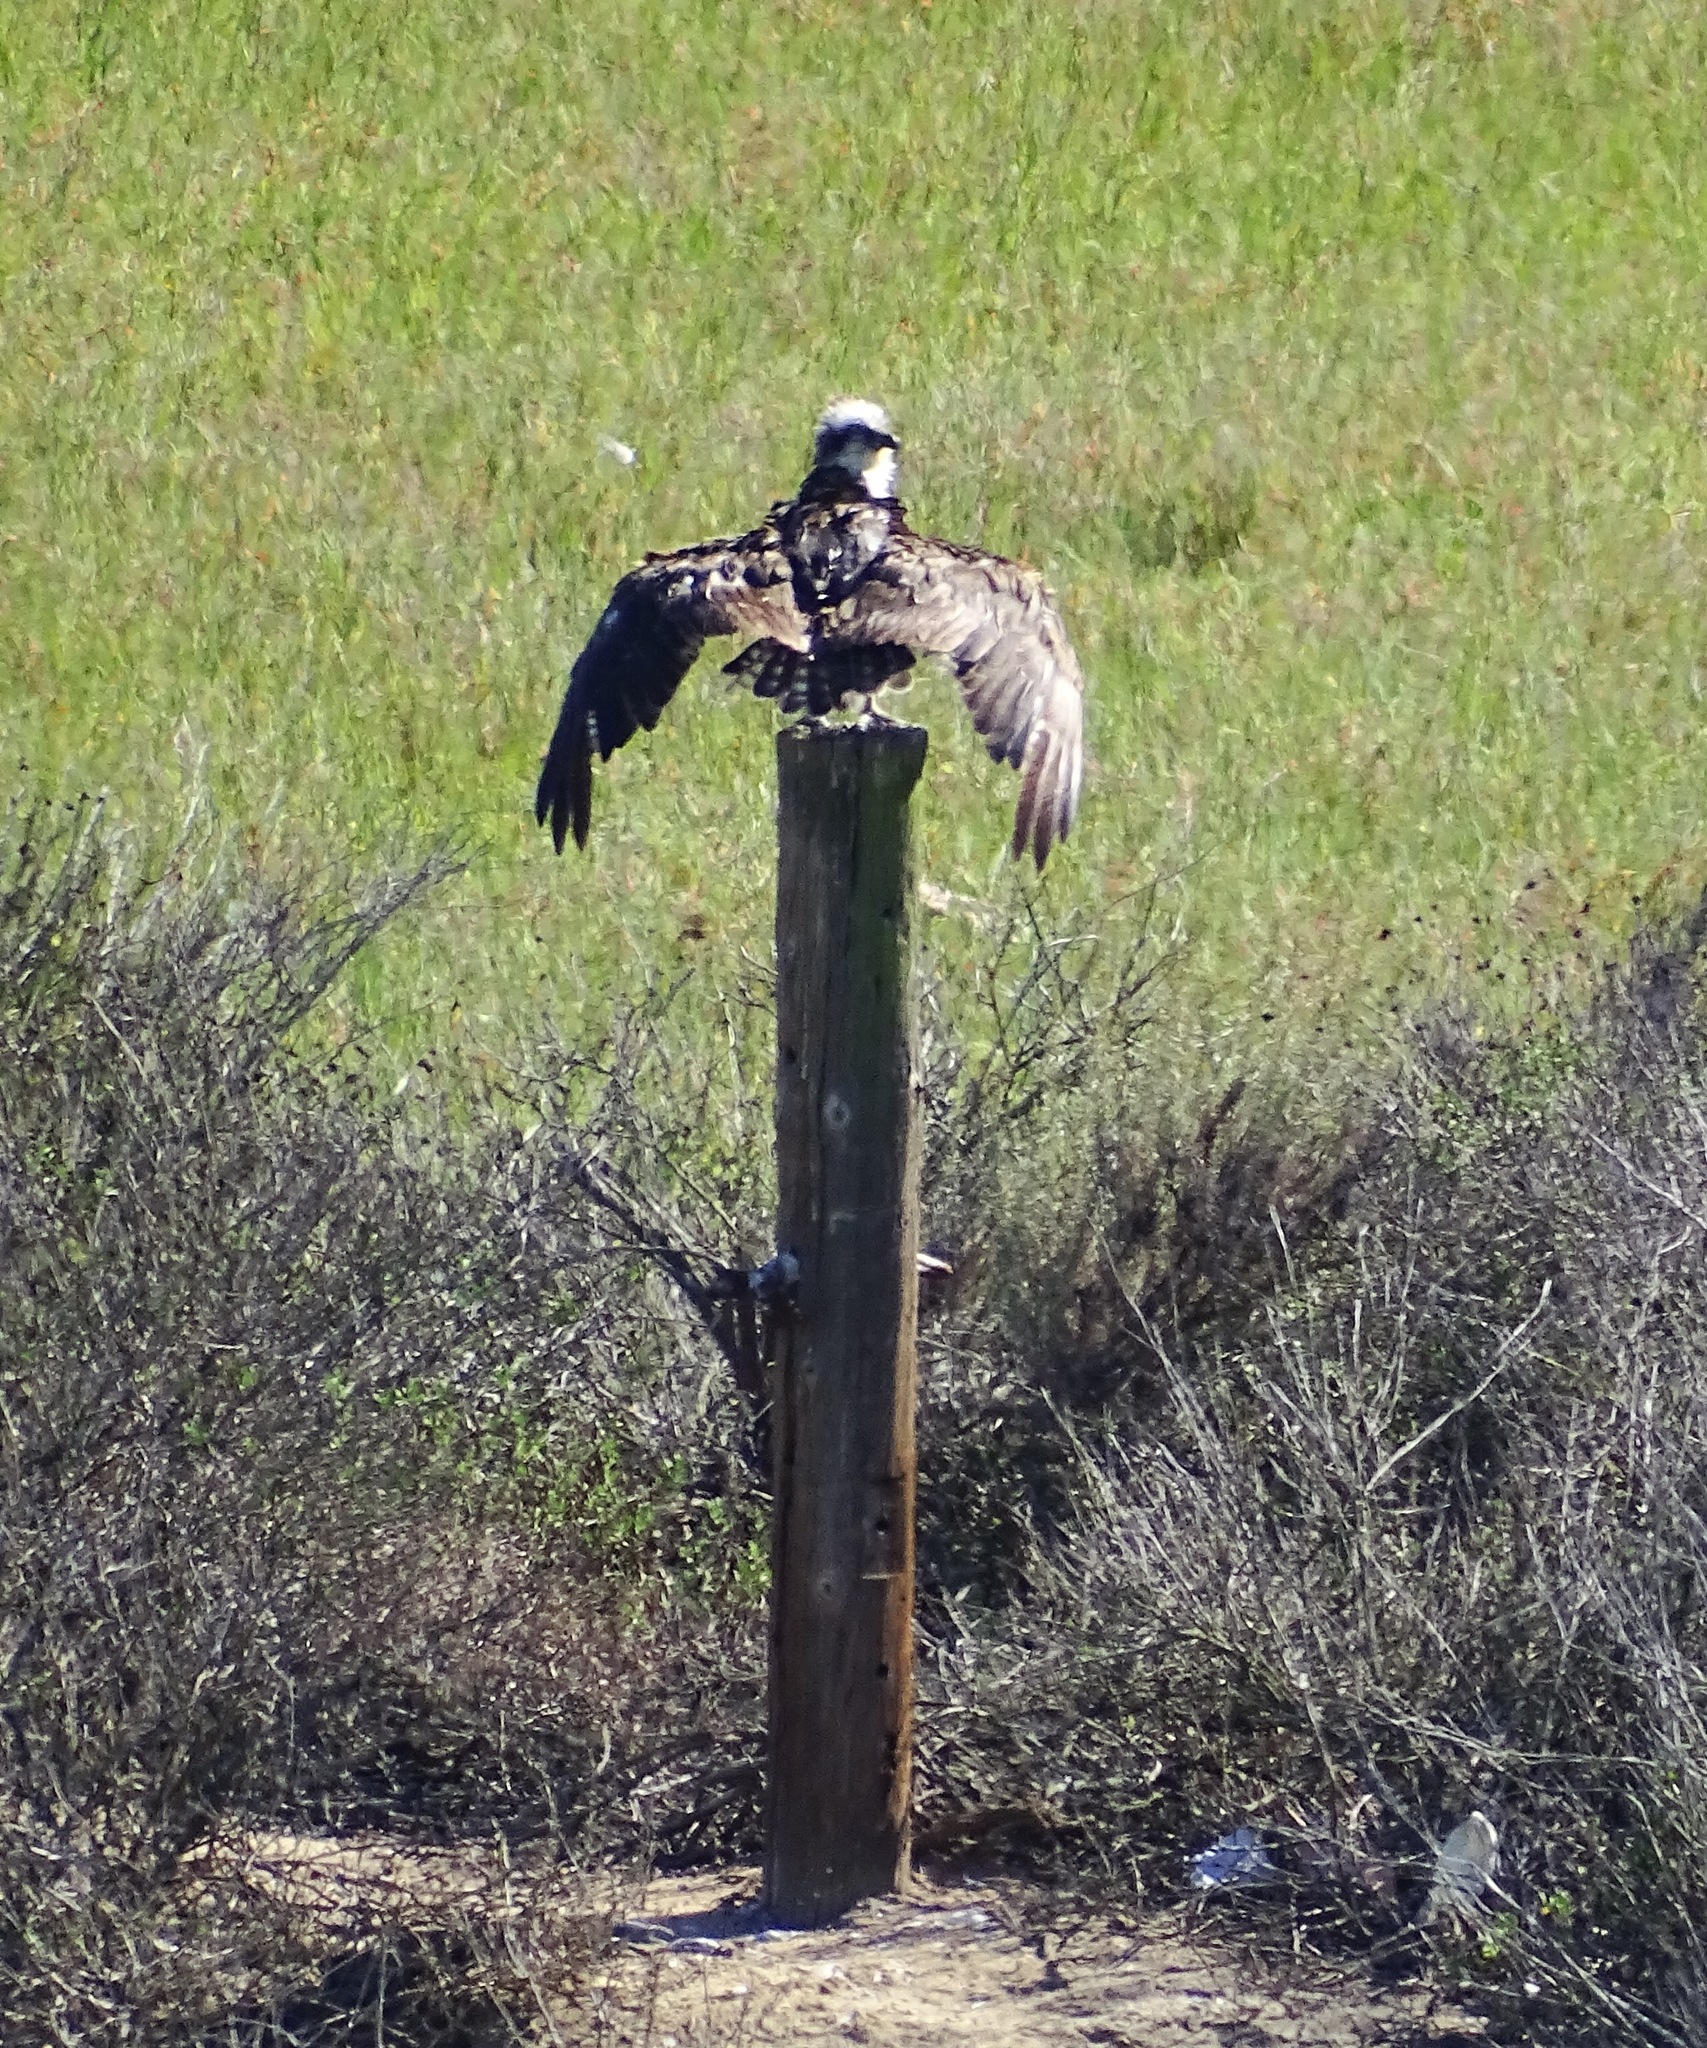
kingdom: Animalia
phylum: Chordata
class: Aves
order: Accipitriformes
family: Pandionidae
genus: Pandion
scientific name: Pandion haliaetus
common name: Osprey
